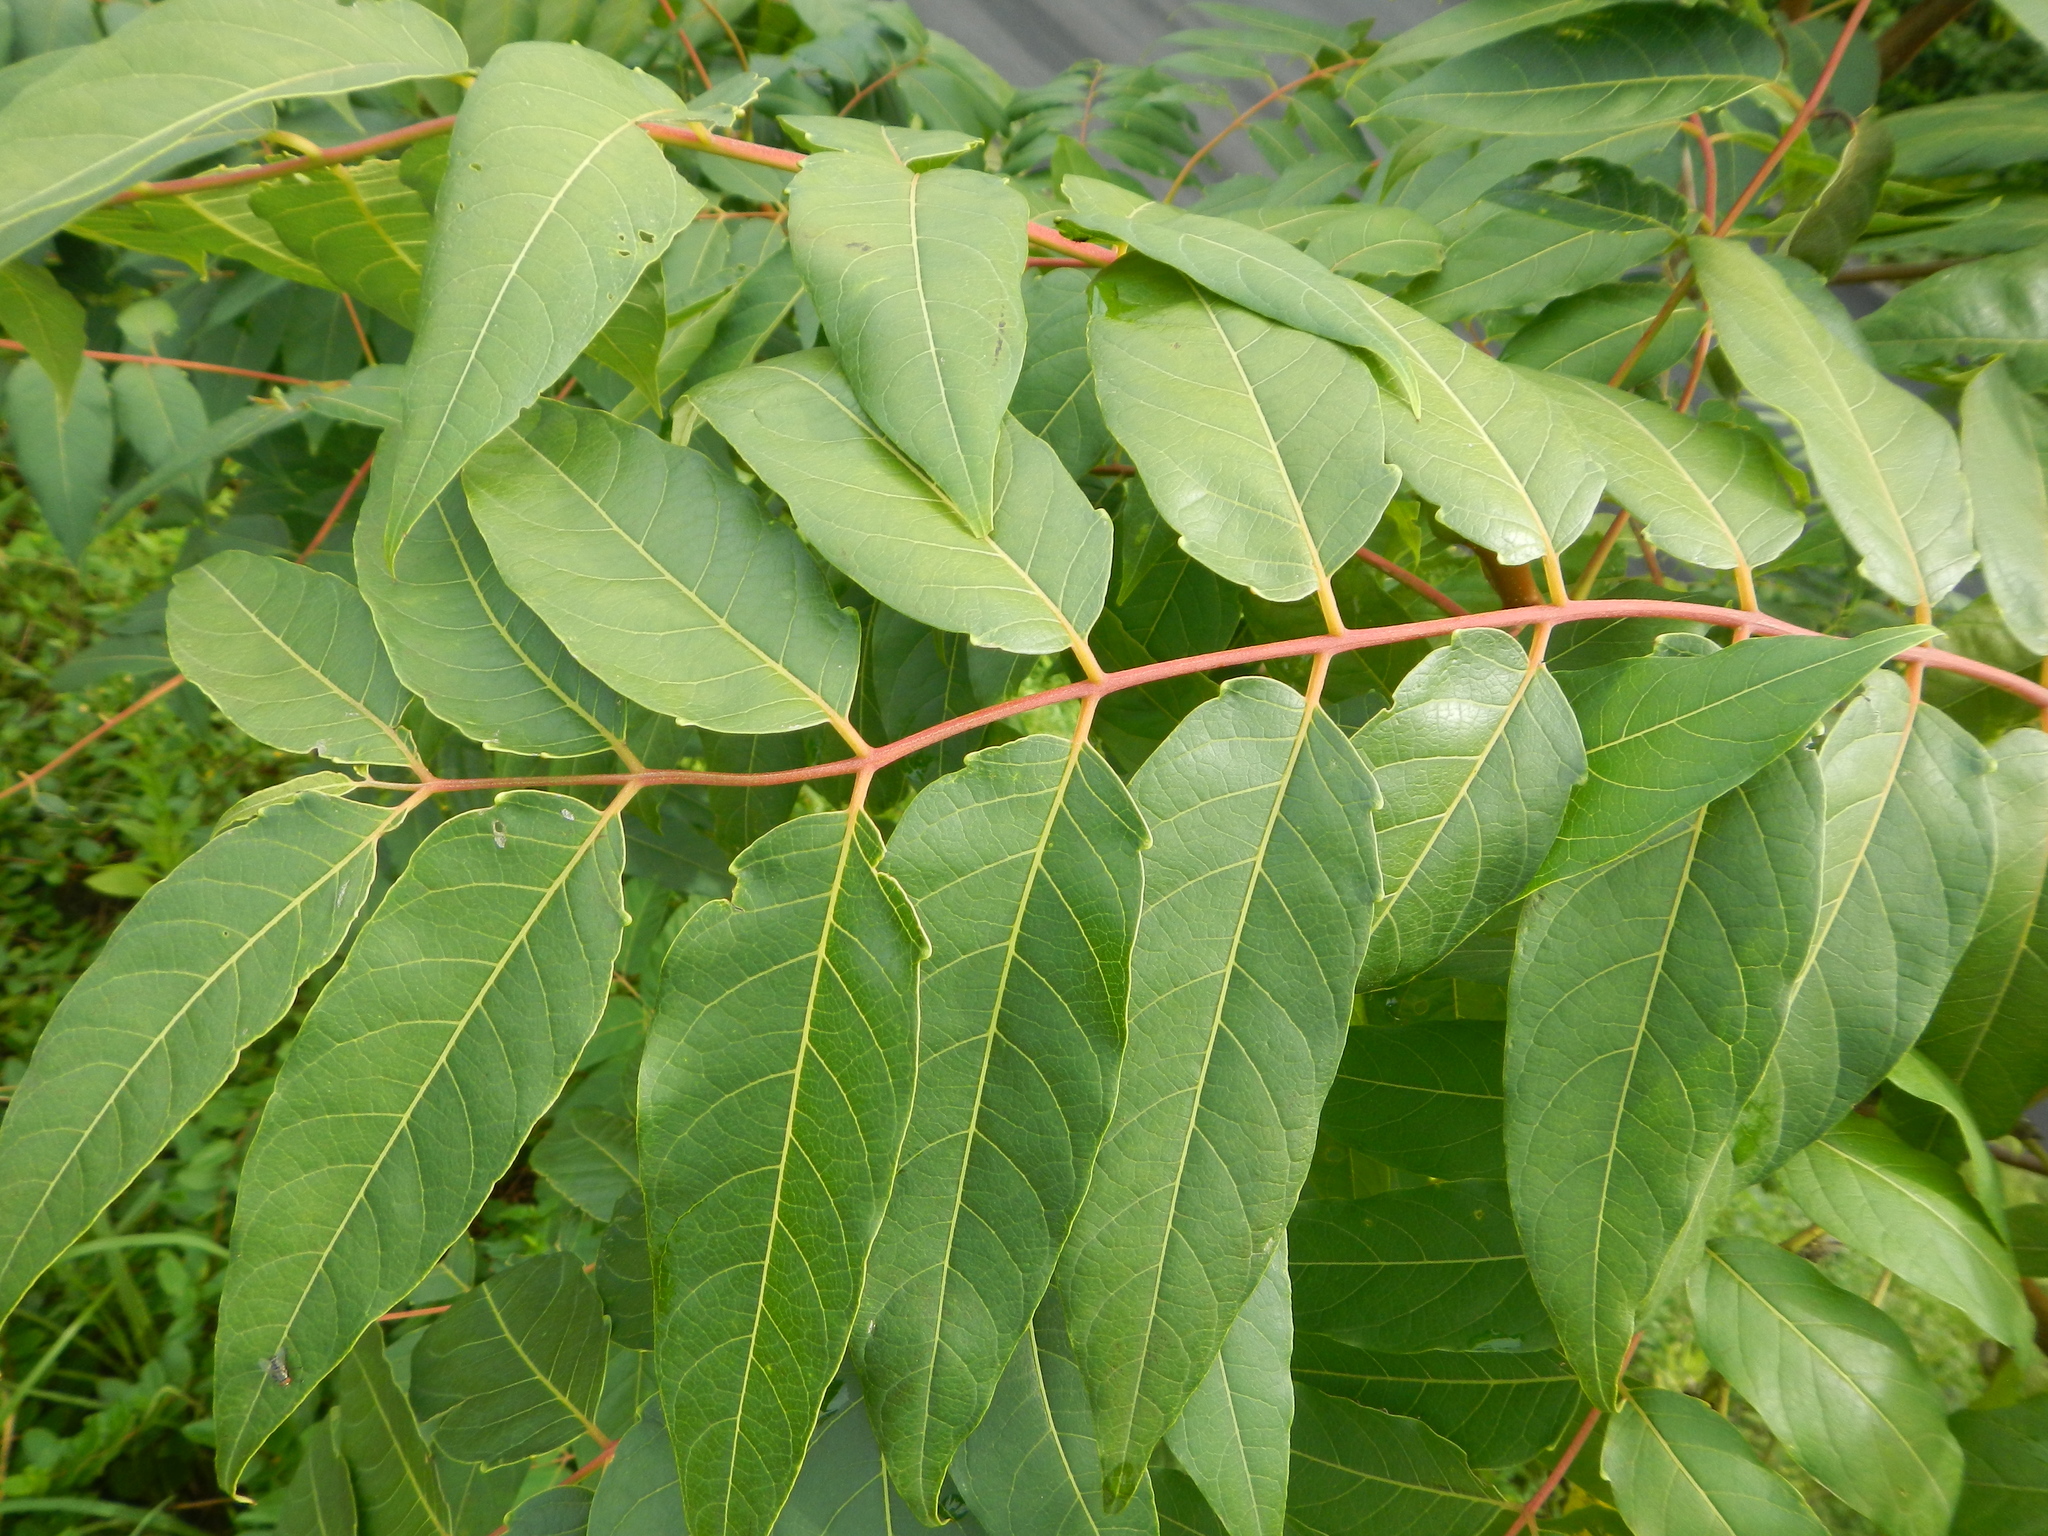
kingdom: Plantae
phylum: Tracheophyta
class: Magnoliopsida
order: Sapindales
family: Simaroubaceae
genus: Ailanthus
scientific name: Ailanthus altissima
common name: Tree-of-heaven
